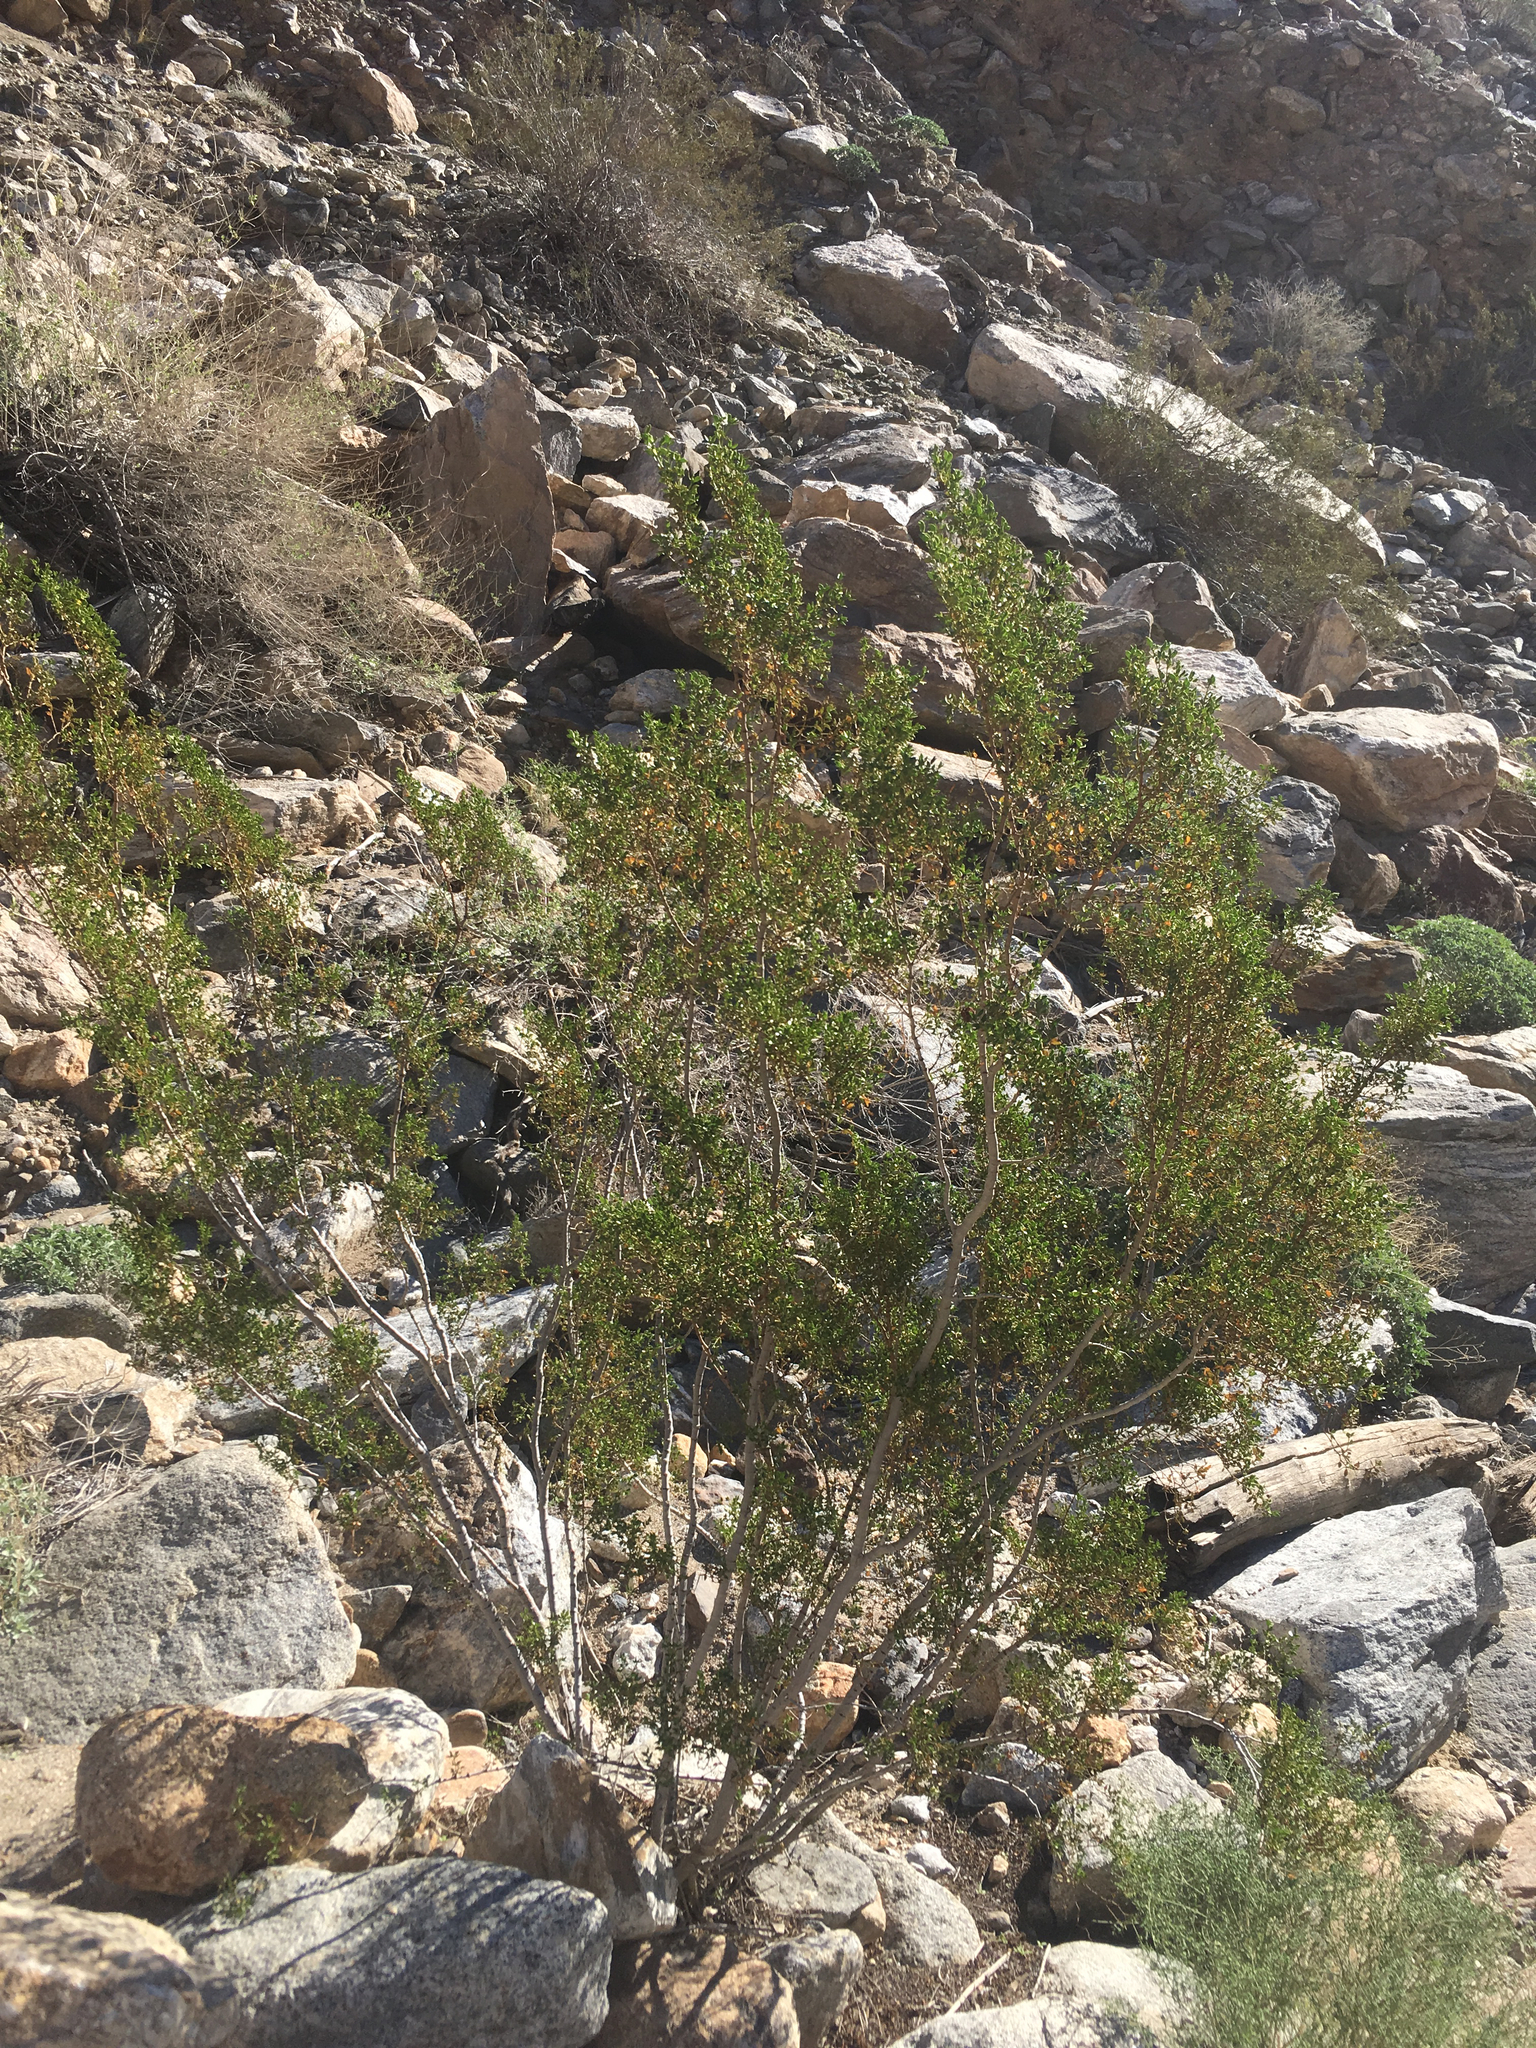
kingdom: Plantae
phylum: Tracheophyta
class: Magnoliopsida
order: Zygophyllales
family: Zygophyllaceae
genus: Larrea
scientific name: Larrea tridentata
